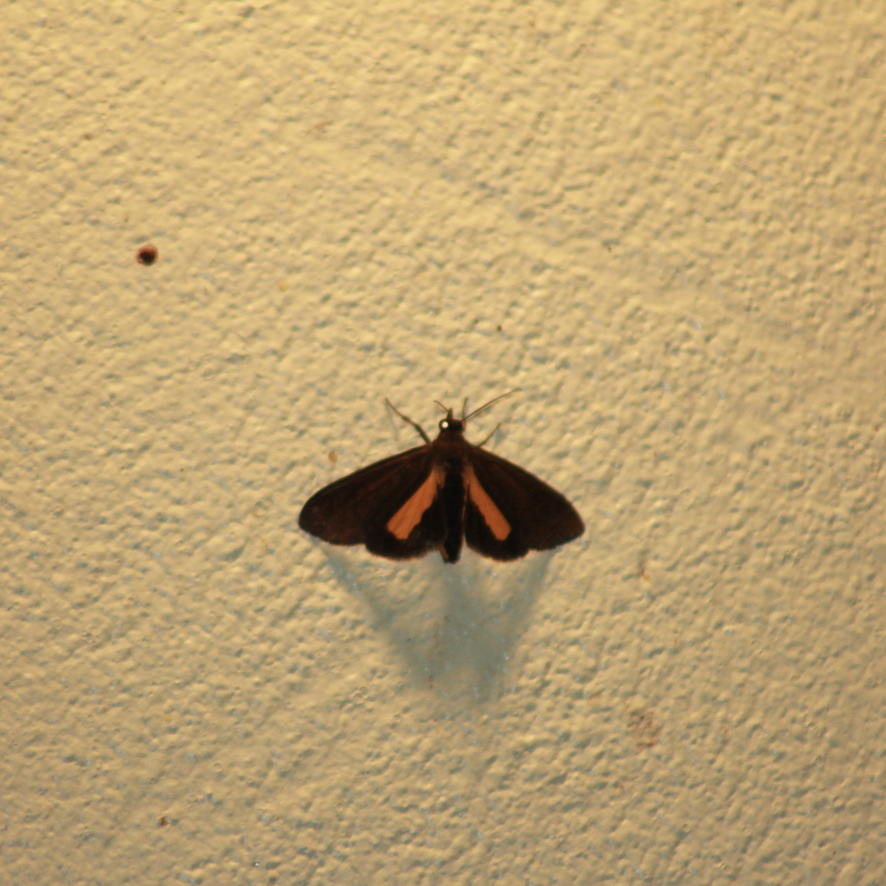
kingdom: Animalia
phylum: Arthropoda
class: Insecta
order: Lepidoptera
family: Erebidae
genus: Virbia
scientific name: Virbia medarda
